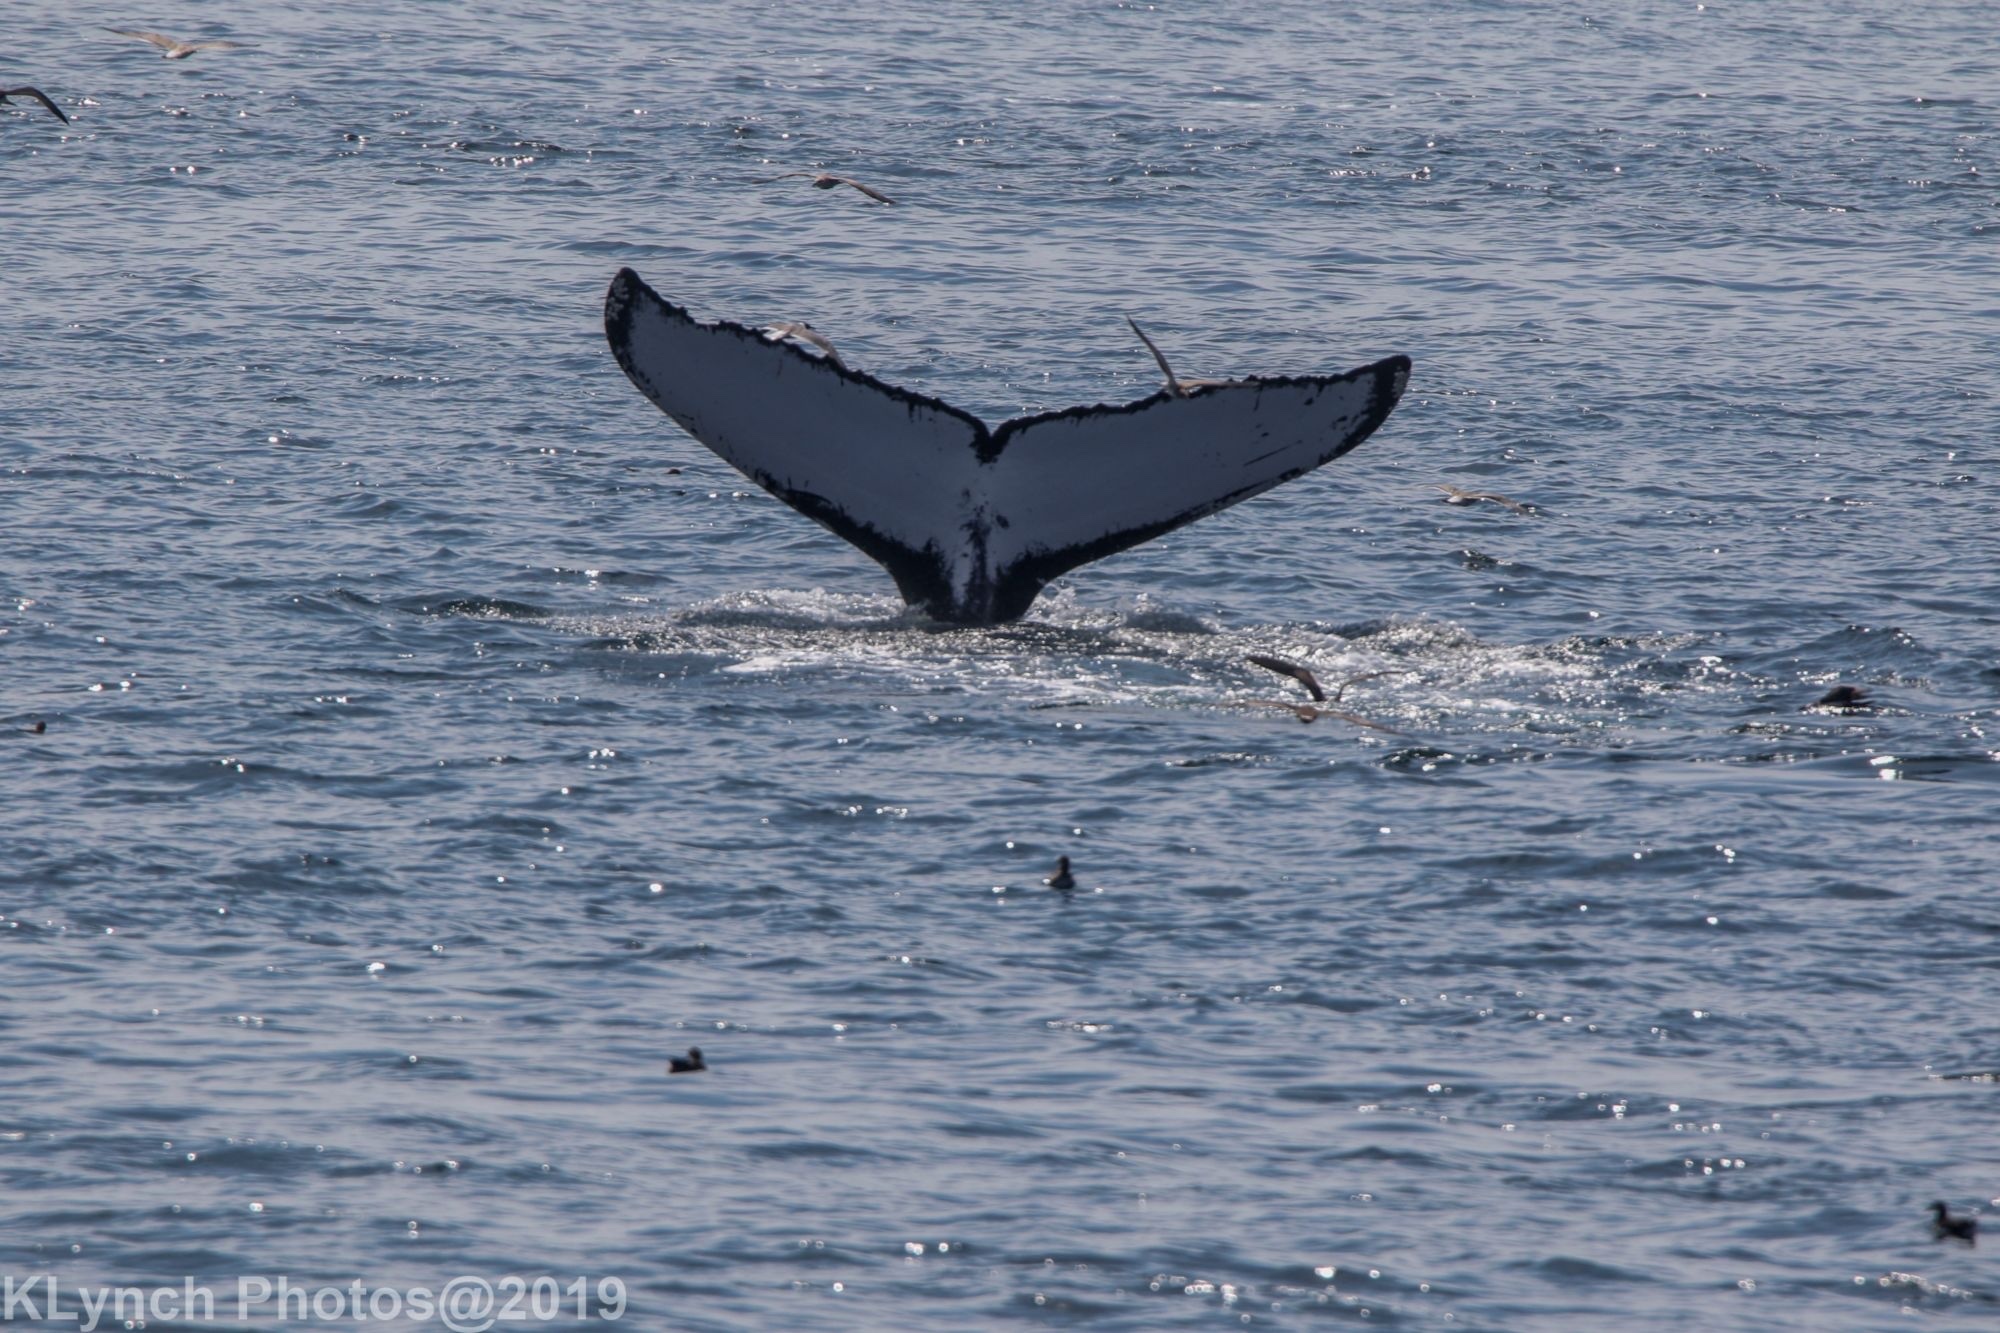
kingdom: Animalia
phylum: Chordata
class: Mammalia
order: Cetacea
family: Balaenopteridae
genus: Megaptera
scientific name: Megaptera novaeangliae
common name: Humpback whale
